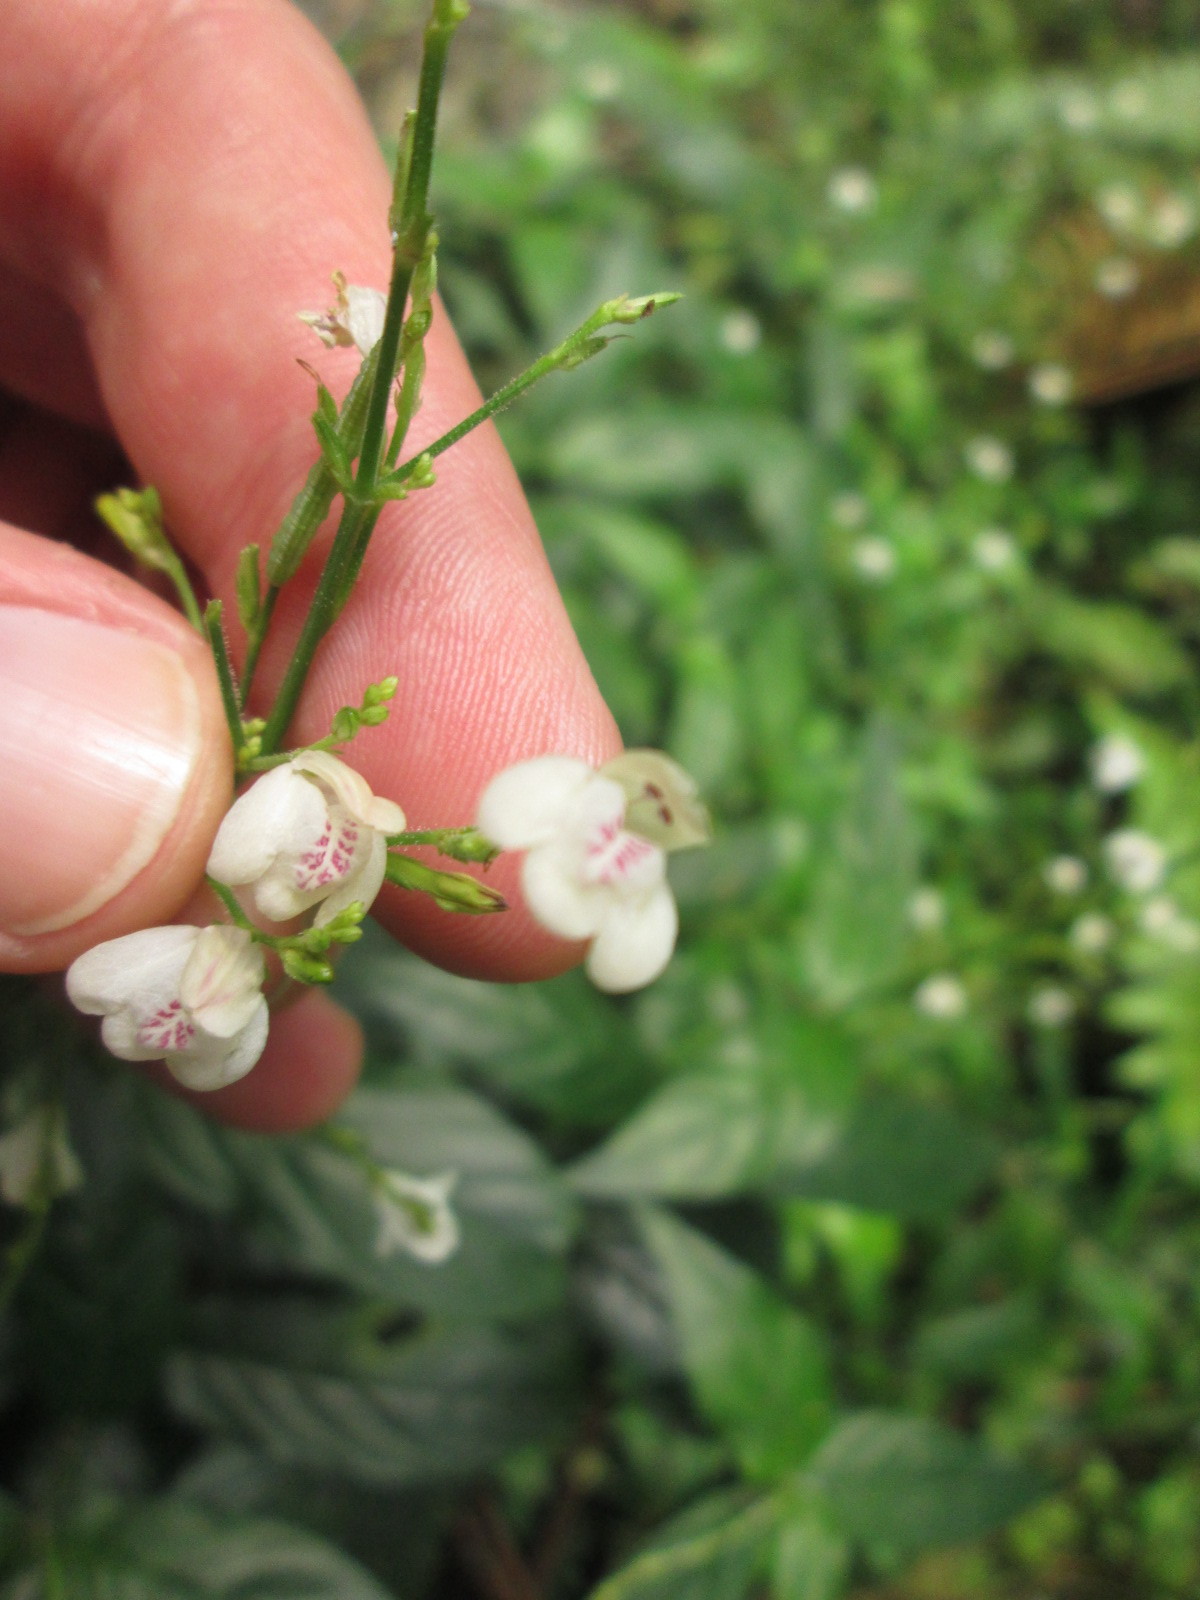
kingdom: Plantae
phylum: Tracheophyta
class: Magnoliopsida
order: Lamiales
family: Acanthaceae
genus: Justicia
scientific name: Justicia martinsoniana
